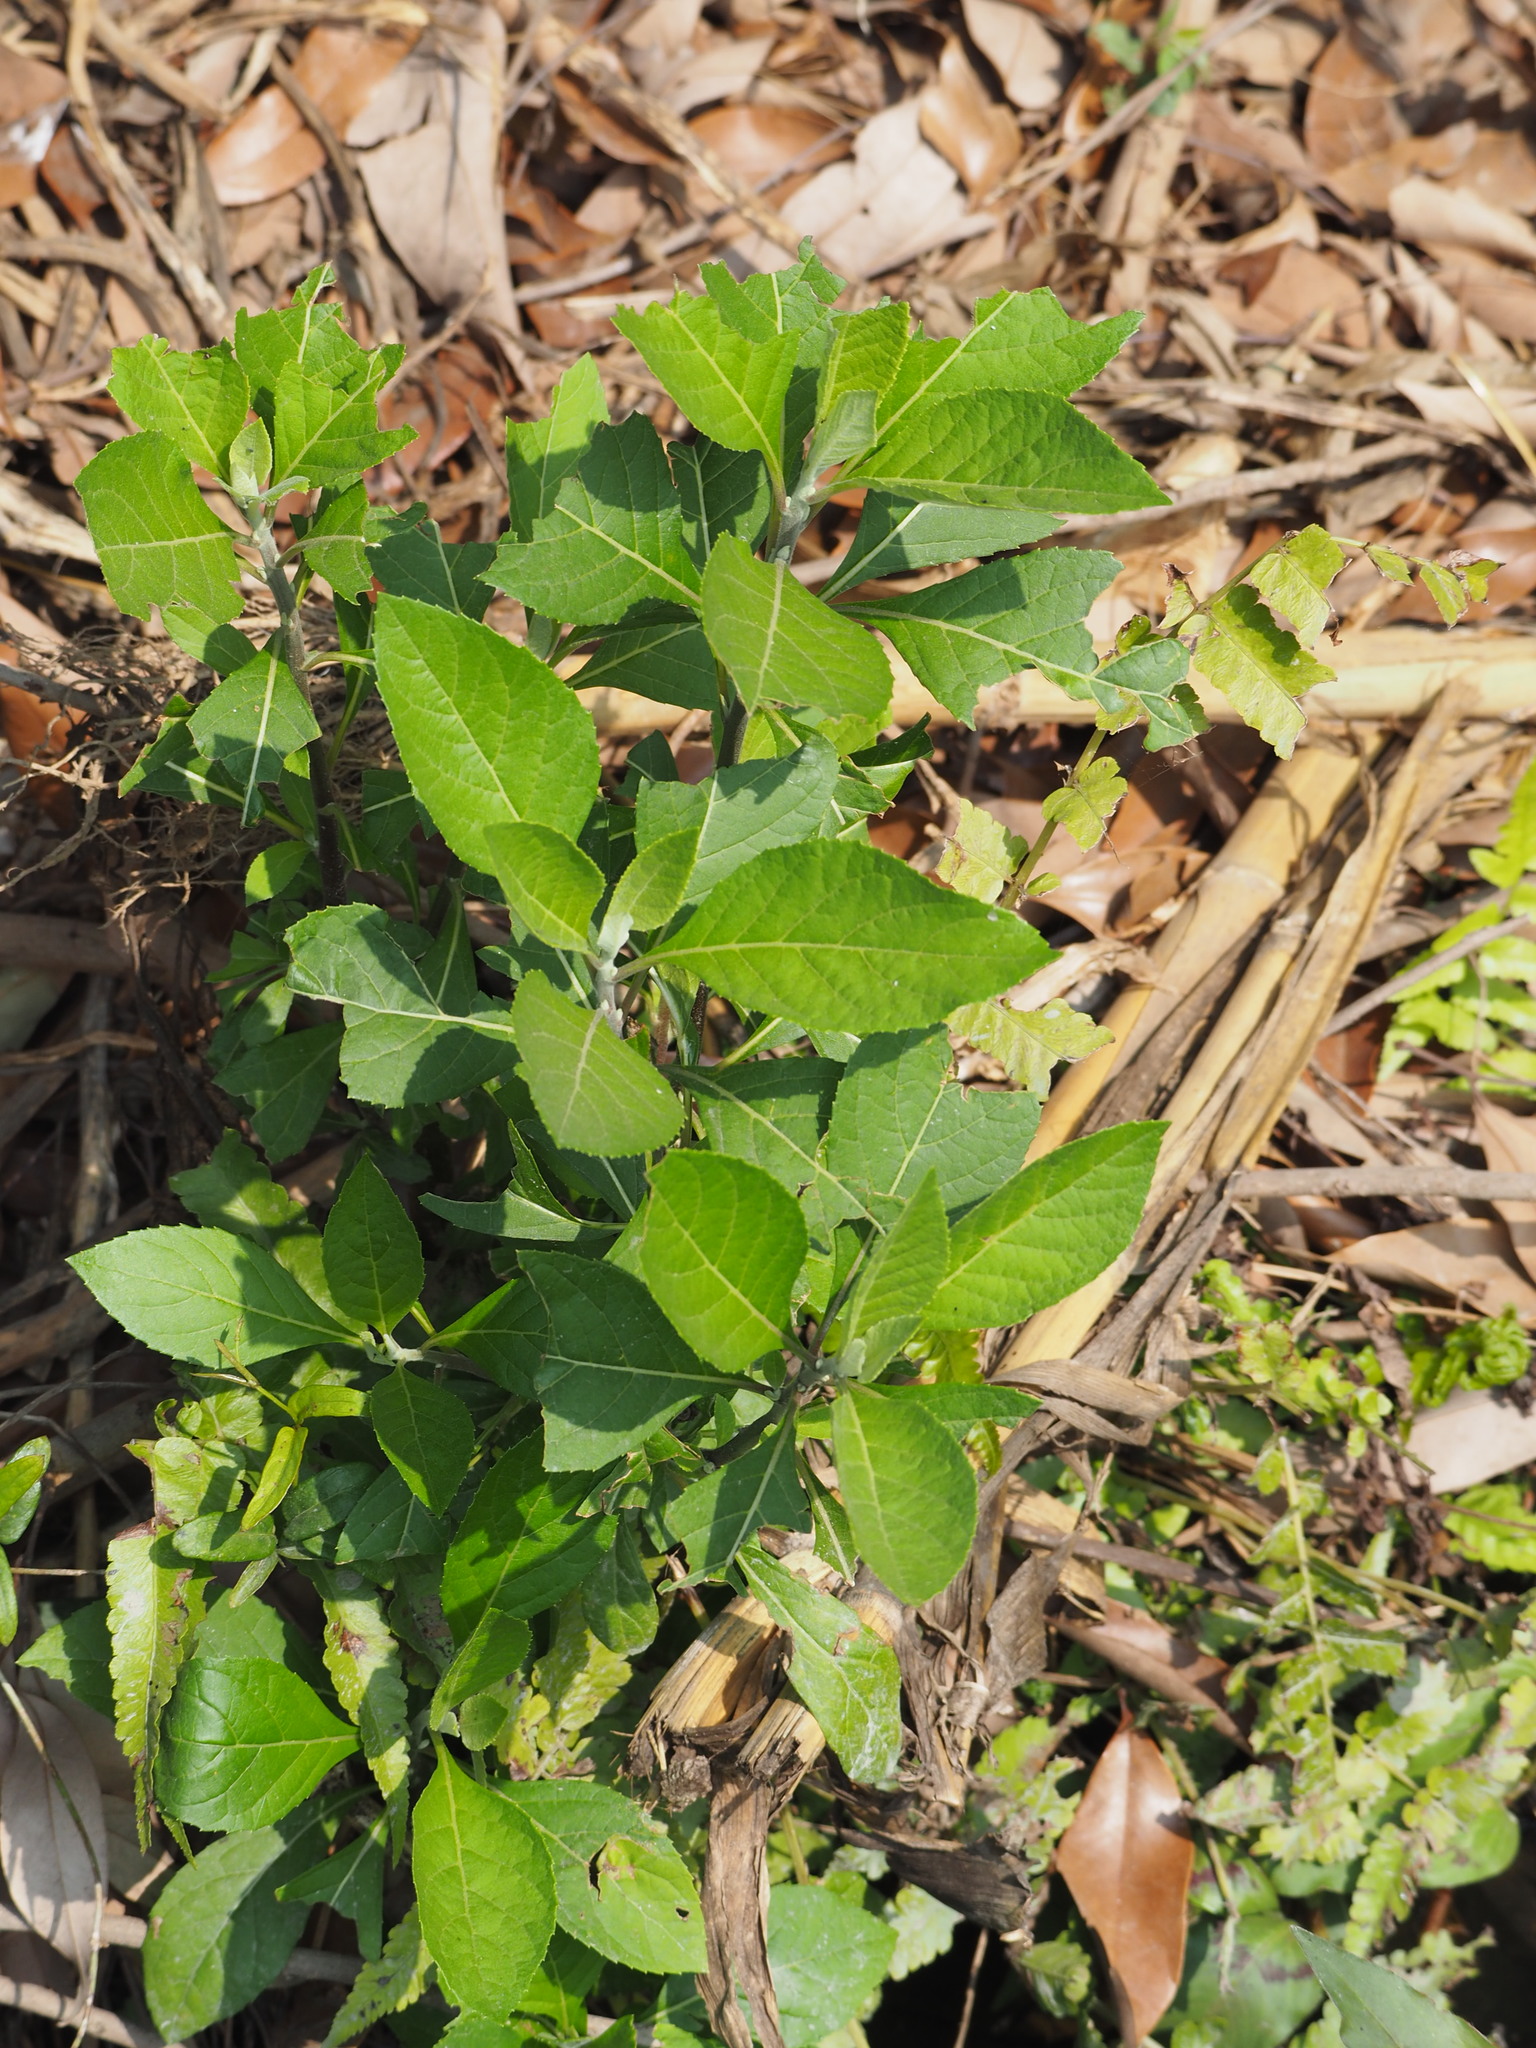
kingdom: Plantae
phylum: Tracheophyta
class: Magnoliopsida
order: Asterales
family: Asteraceae
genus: Gymnanthemum
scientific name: Gymnanthemum amygdalinum
